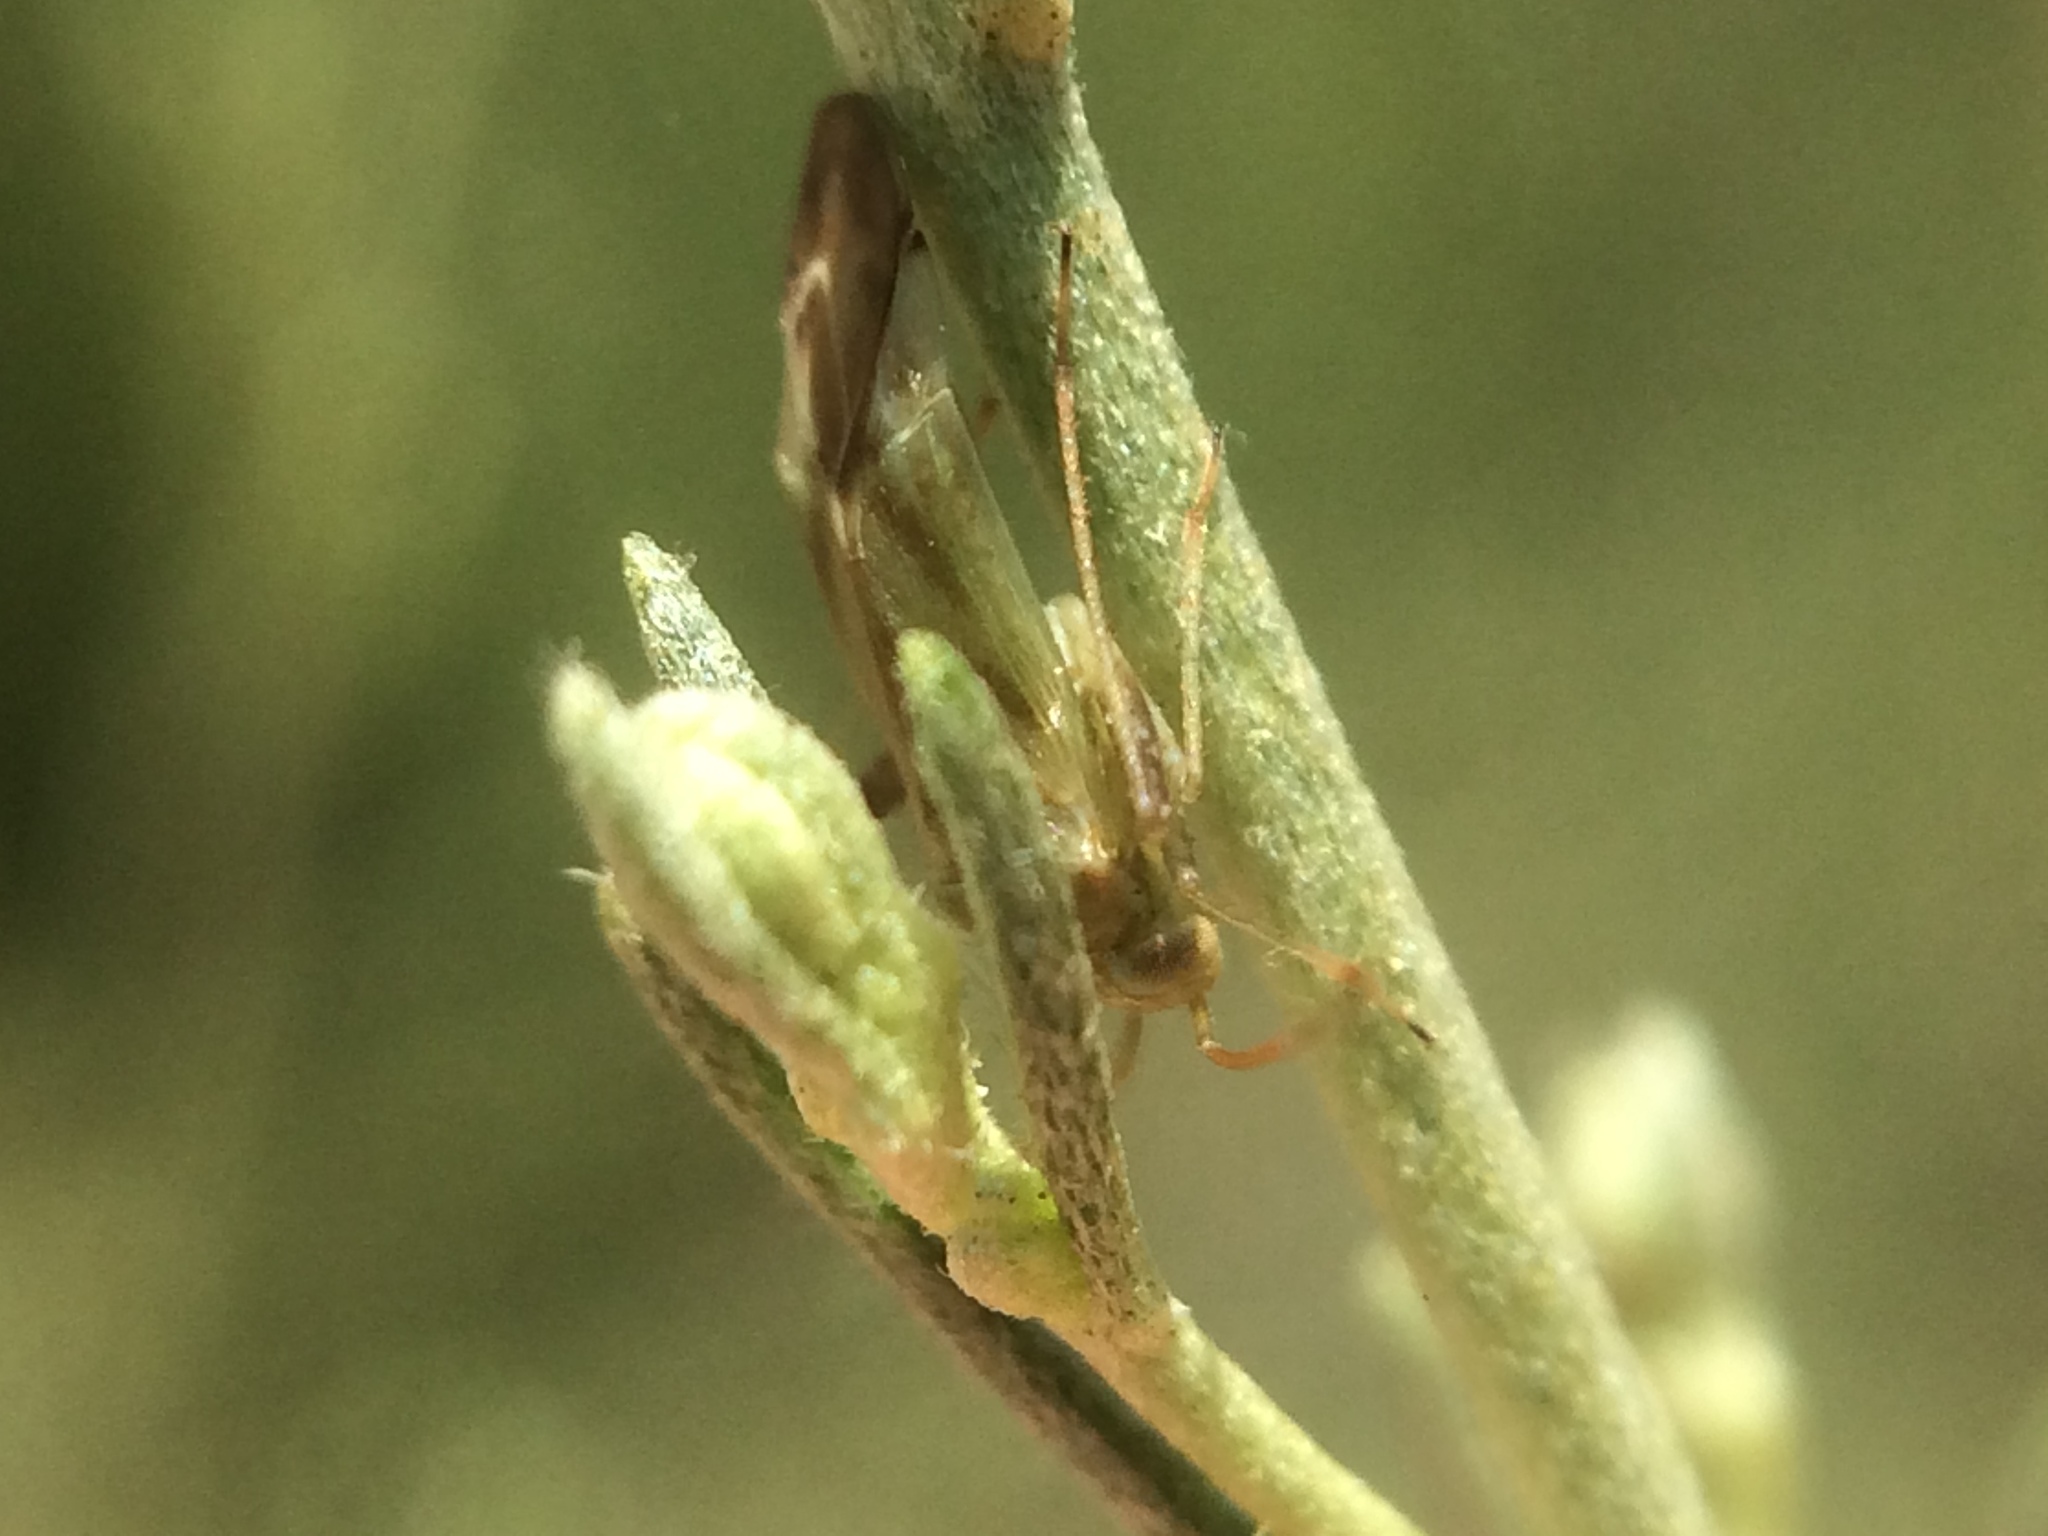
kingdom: Animalia
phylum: Arthropoda
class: Insecta
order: Hemiptera
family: Miridae
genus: Taylorilygus
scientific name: Taylorilygus apicalis
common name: Plant bug
